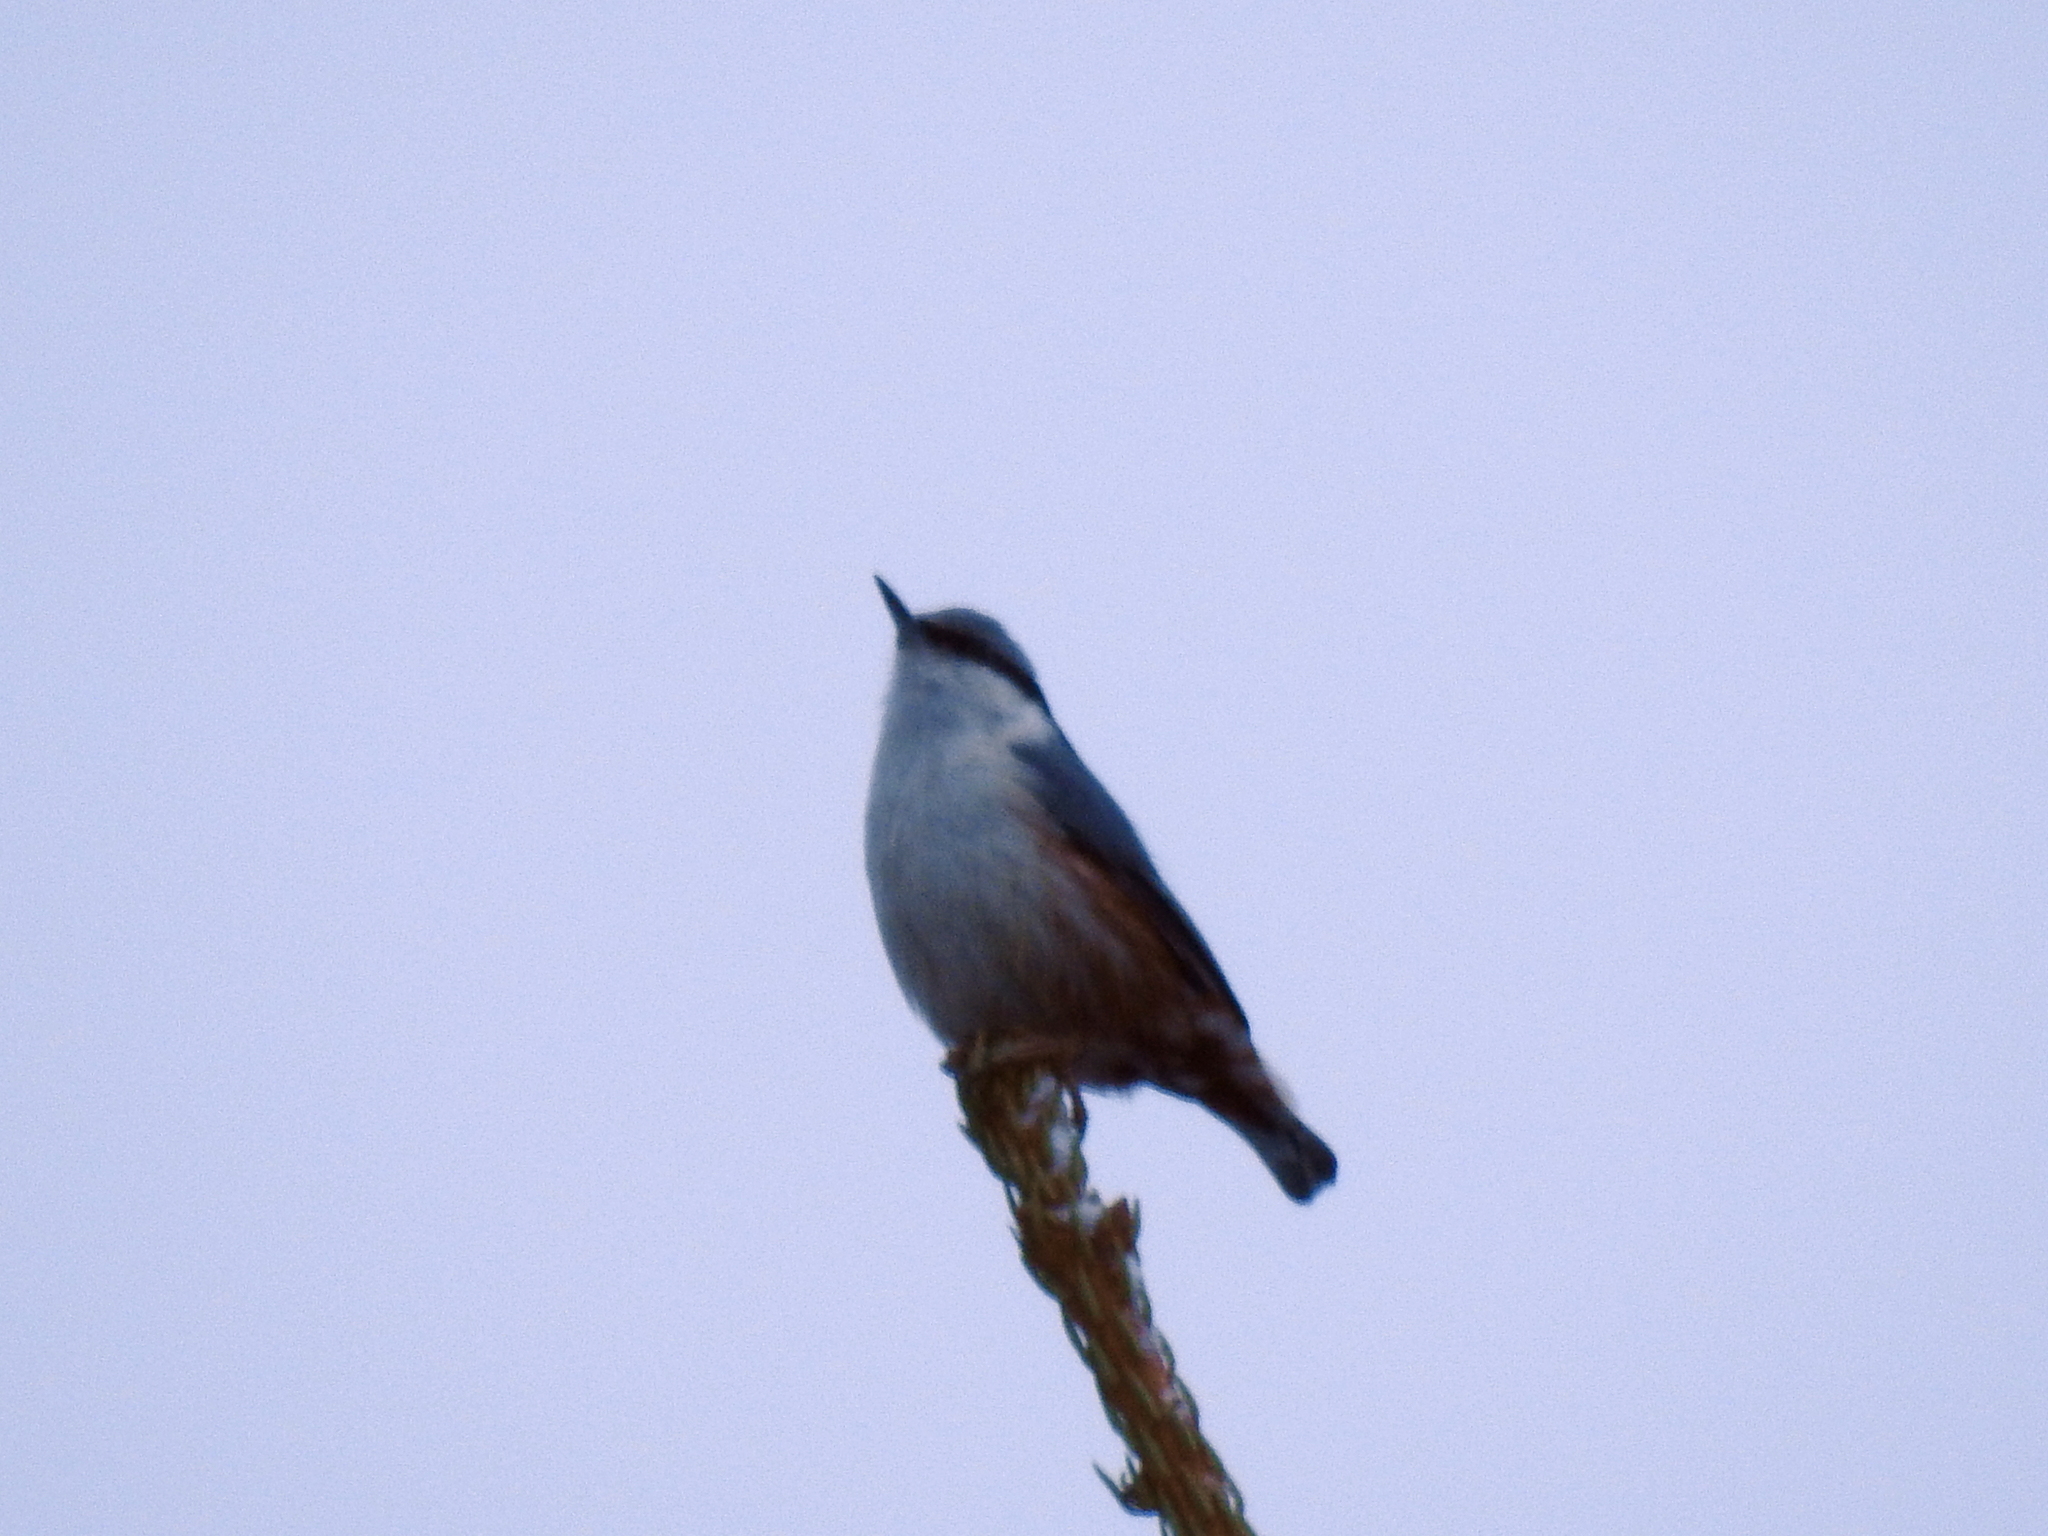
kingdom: Animalia
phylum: Chordata
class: Aves
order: Passeriformes
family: Sittidae
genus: Sitta
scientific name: Sitta europaea
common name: Eurasian nuthatch
